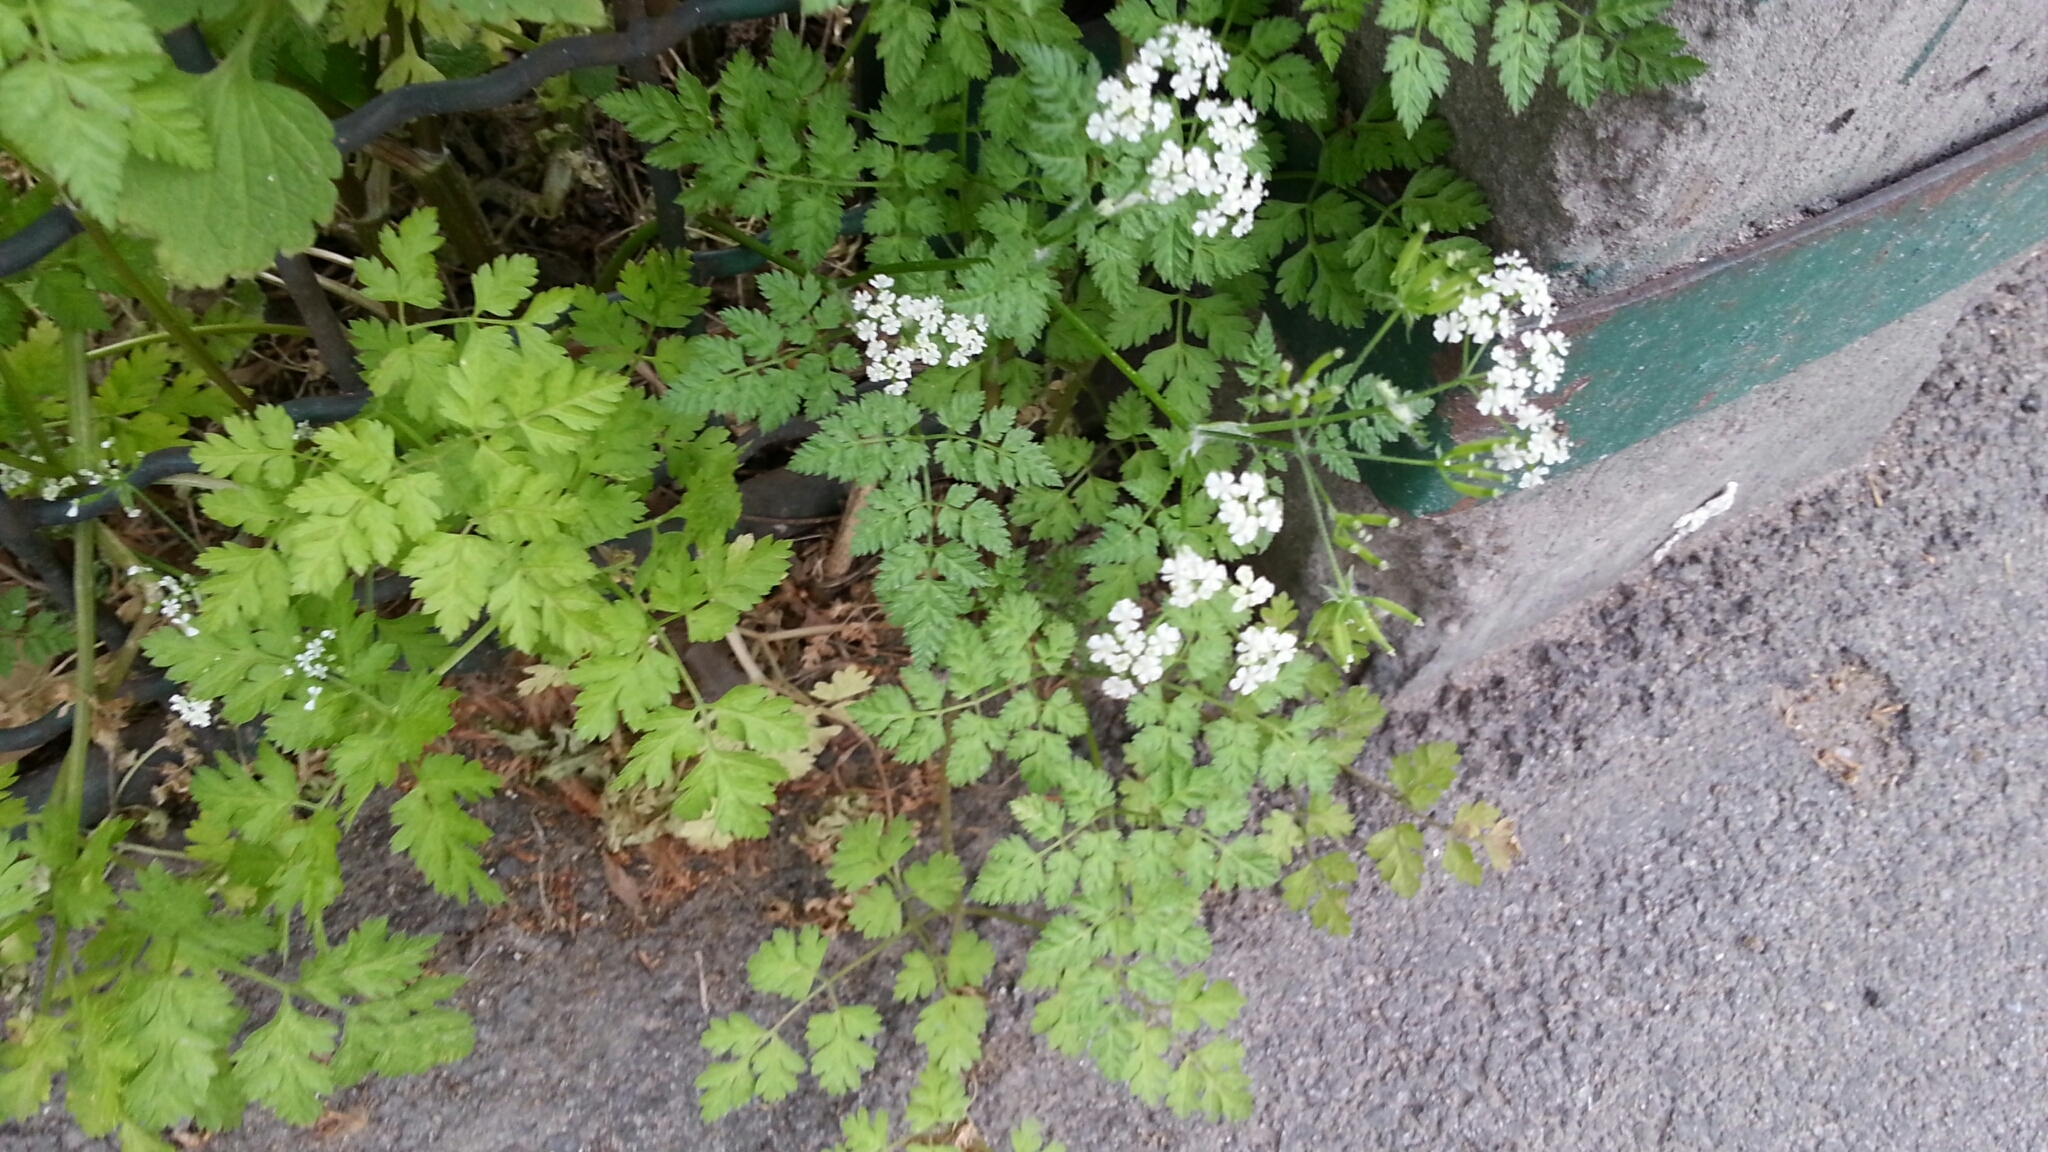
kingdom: Plantae
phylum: Tracheophyta
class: Magnoliopsida
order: Apiales
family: Apiaceae
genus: Anthriscus
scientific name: Anthriscus cerefolium
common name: Garden chervil
